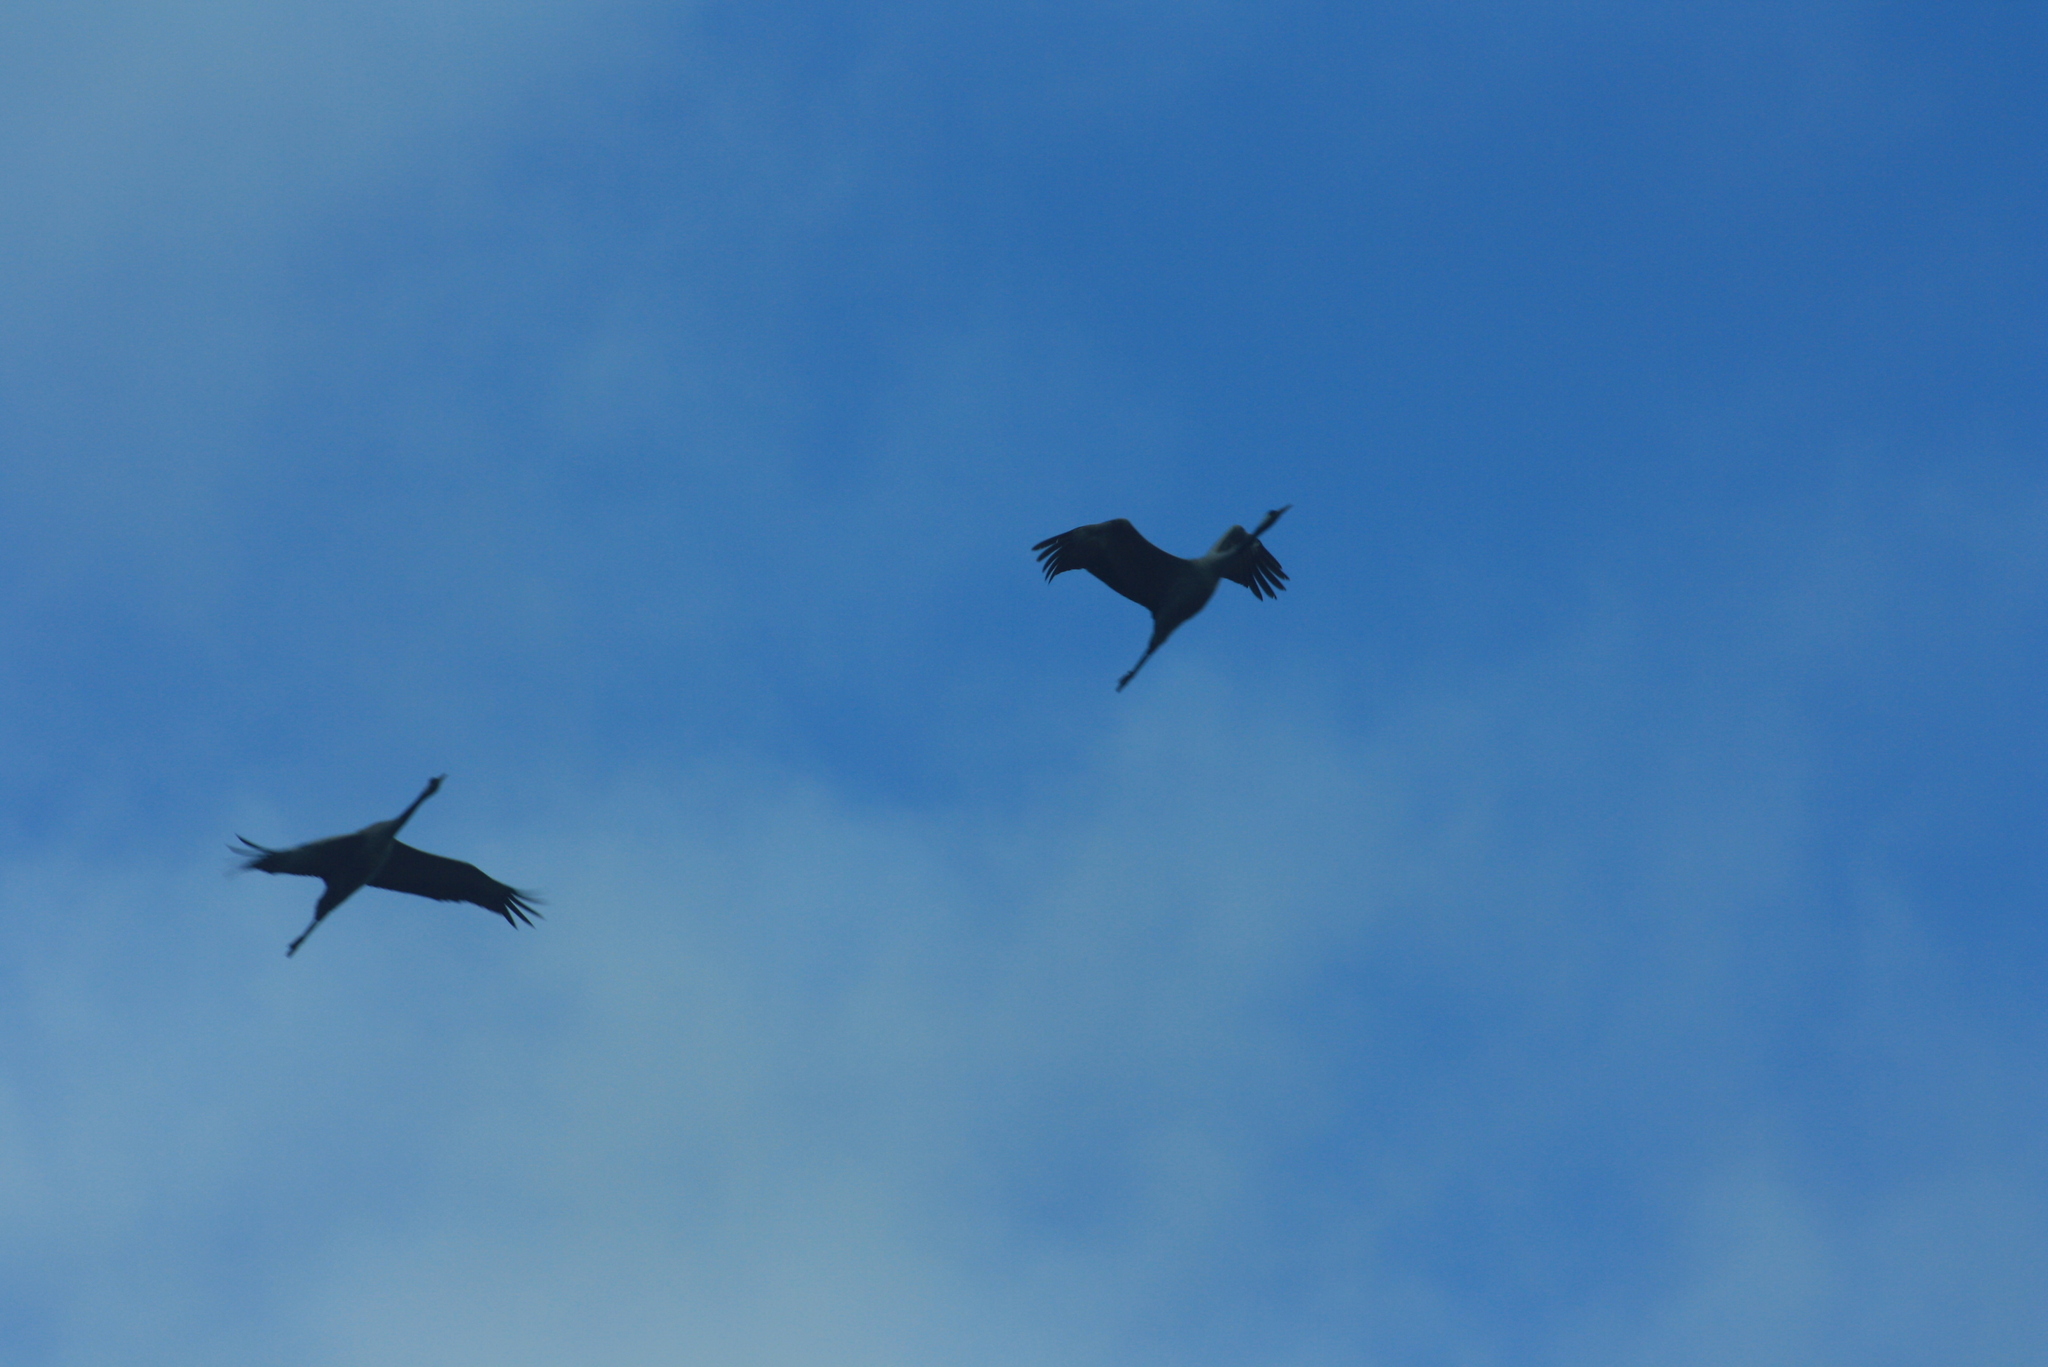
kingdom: Animalia
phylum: Chordata
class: Aves
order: Gruiformes
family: Gruidae
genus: Grus
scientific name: Grus grus
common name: Common crane
